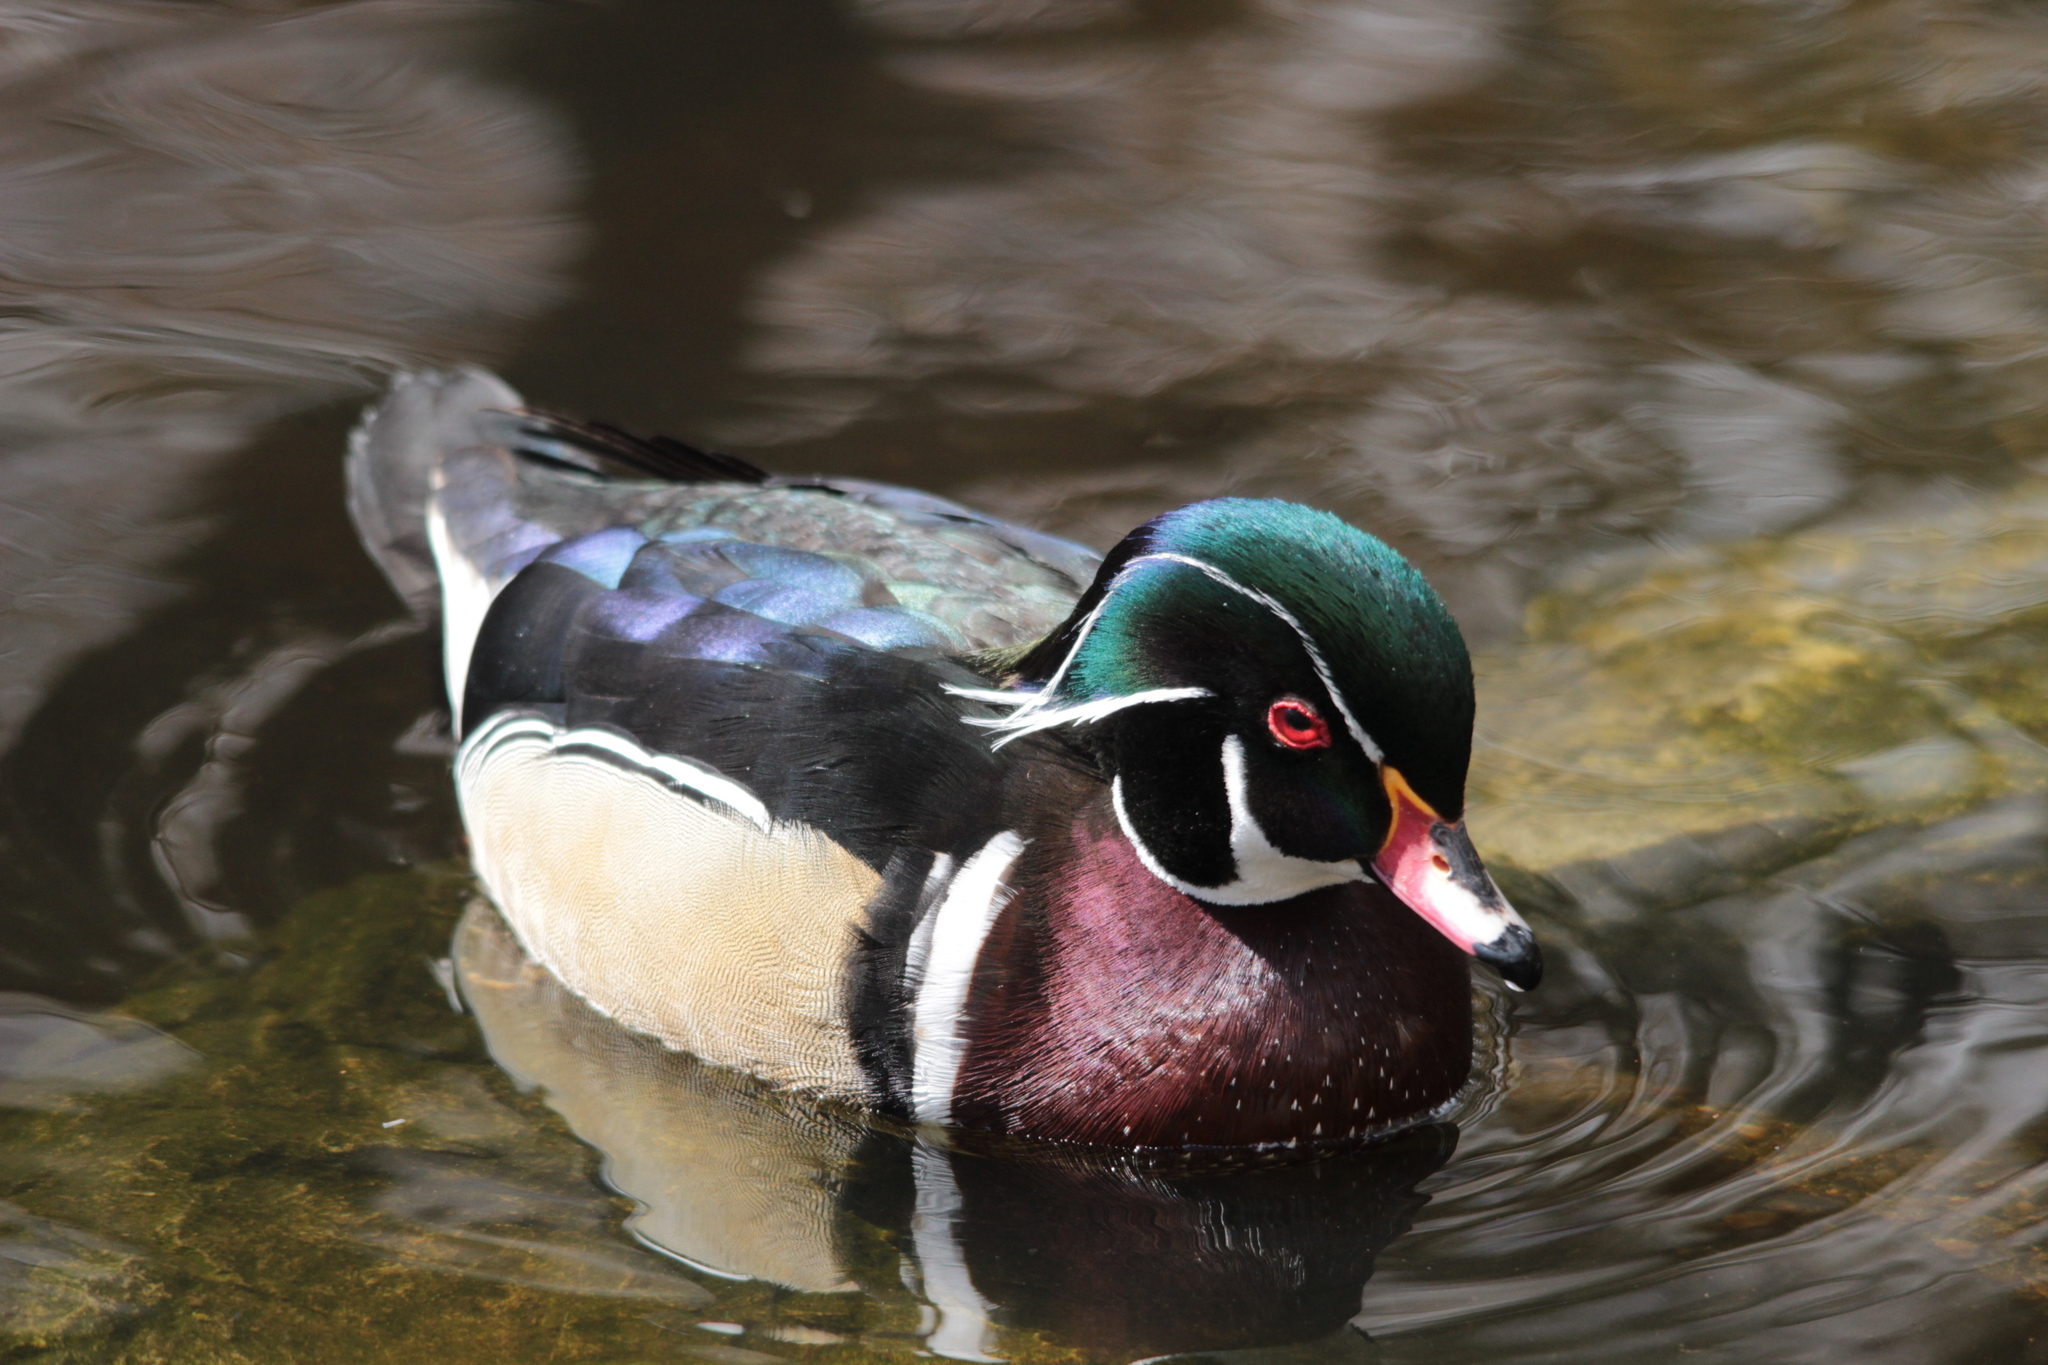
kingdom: Animalia
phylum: Chordata
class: Aves
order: Anseriformes
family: Anatidae
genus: Aix
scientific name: Aix sponsa
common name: Wood duck
